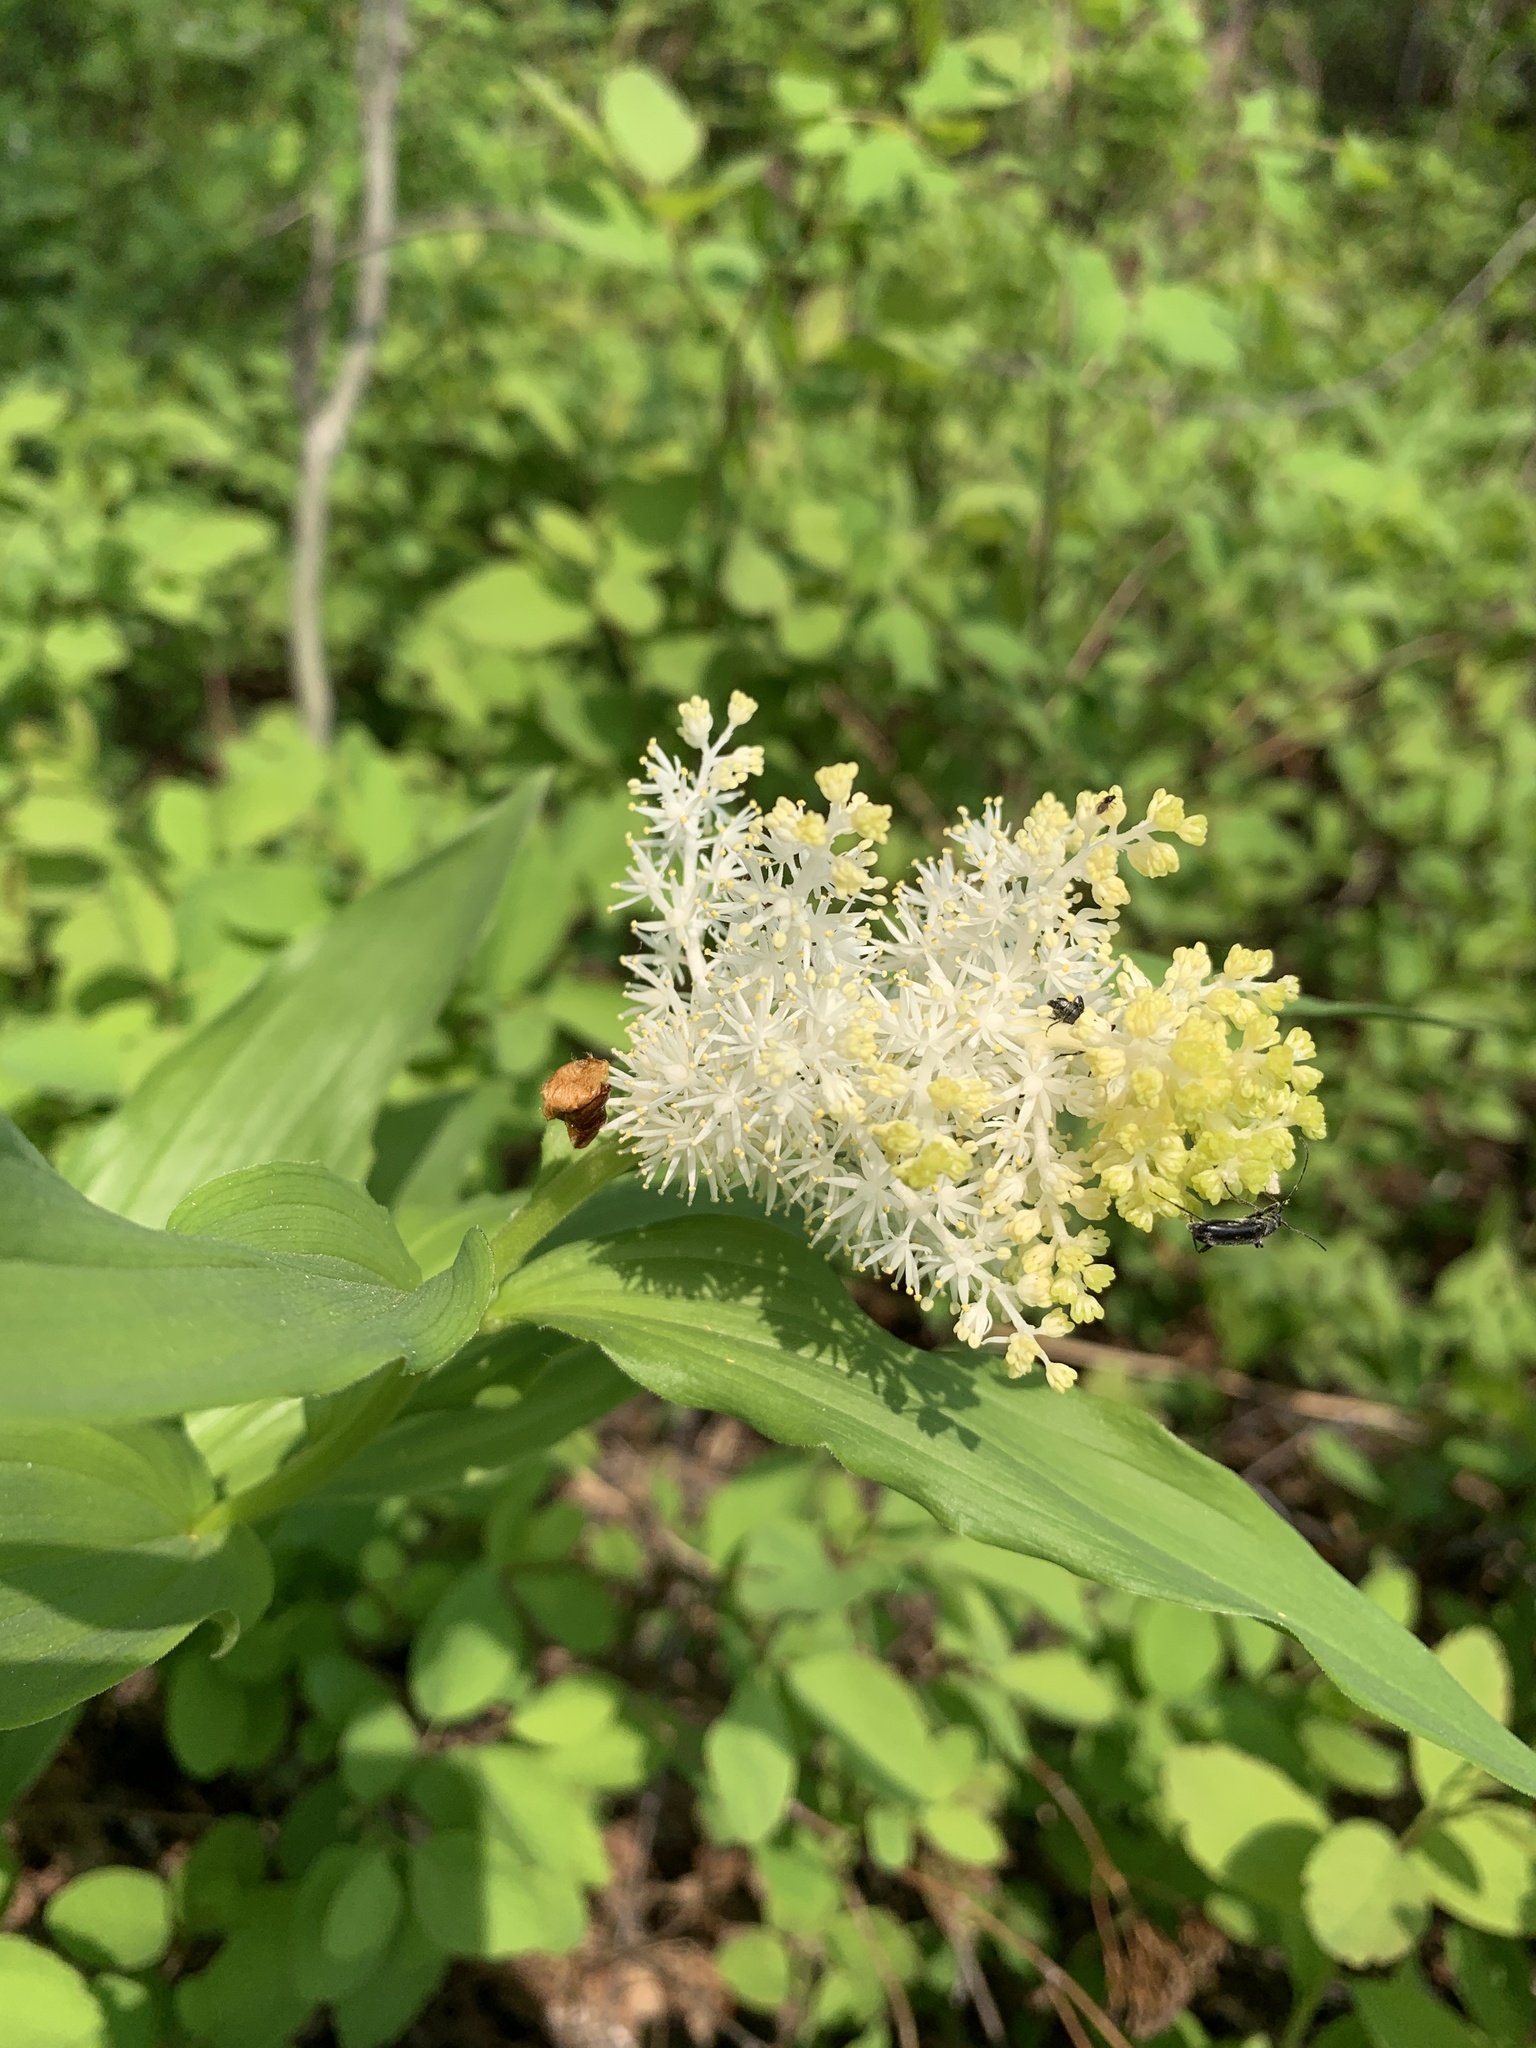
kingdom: Plantae
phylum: Tracheophyta
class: Liliopsida
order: Asparagales
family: Asparagaceae
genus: Maianthemum
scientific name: Maianthemum racemosum
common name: False spikenard
